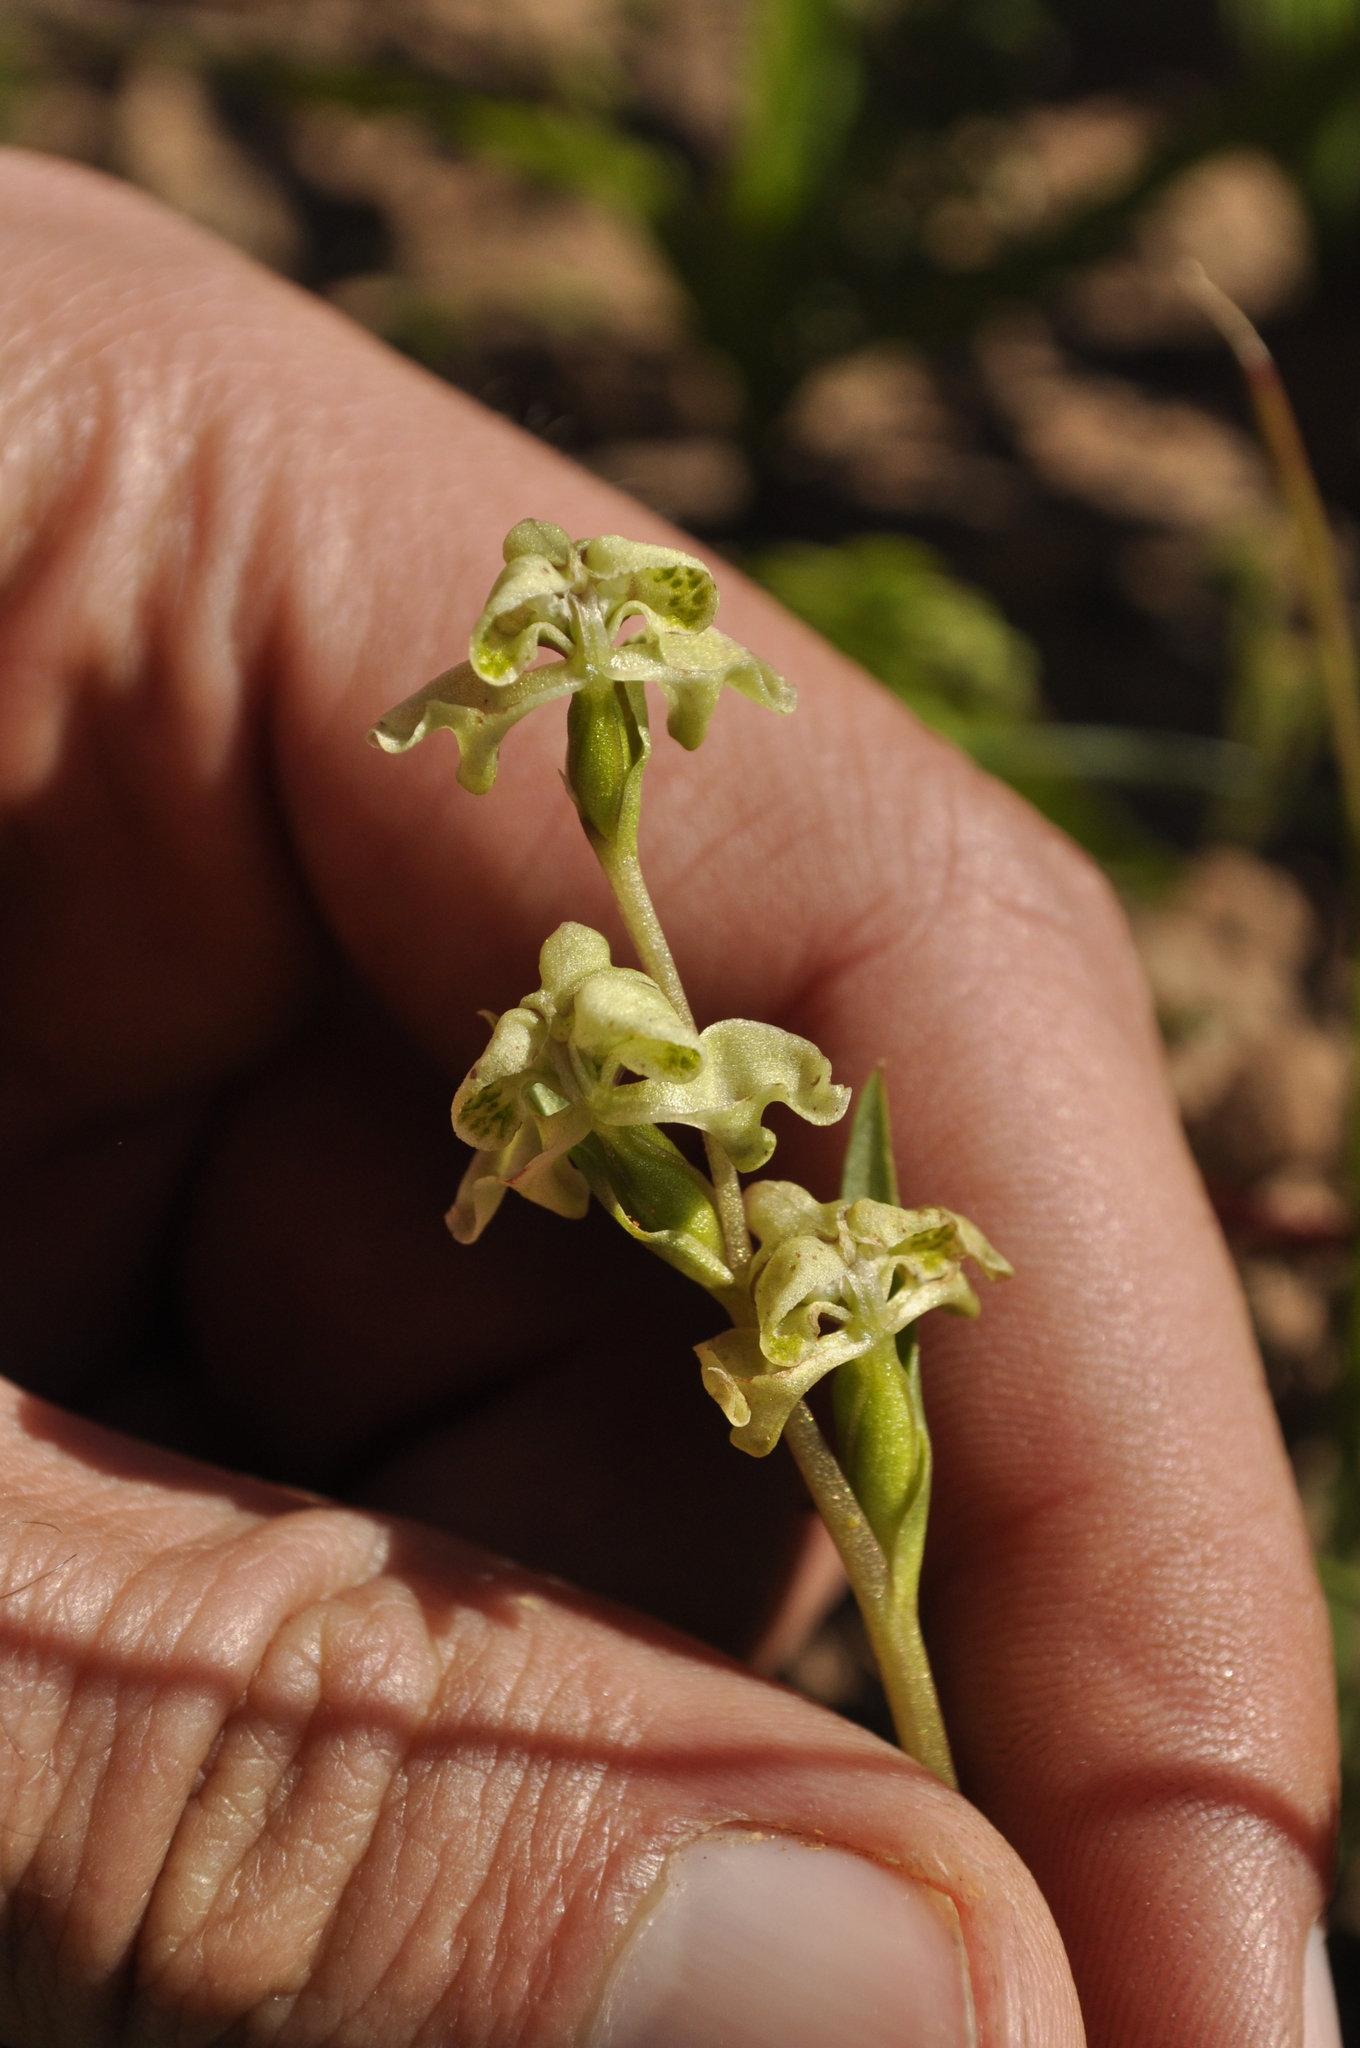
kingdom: Plantae
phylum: Tracheophyta
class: Liliopsida
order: Asparagales
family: Orchidaceae
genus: Disperis
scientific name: Disperis circumflexa
